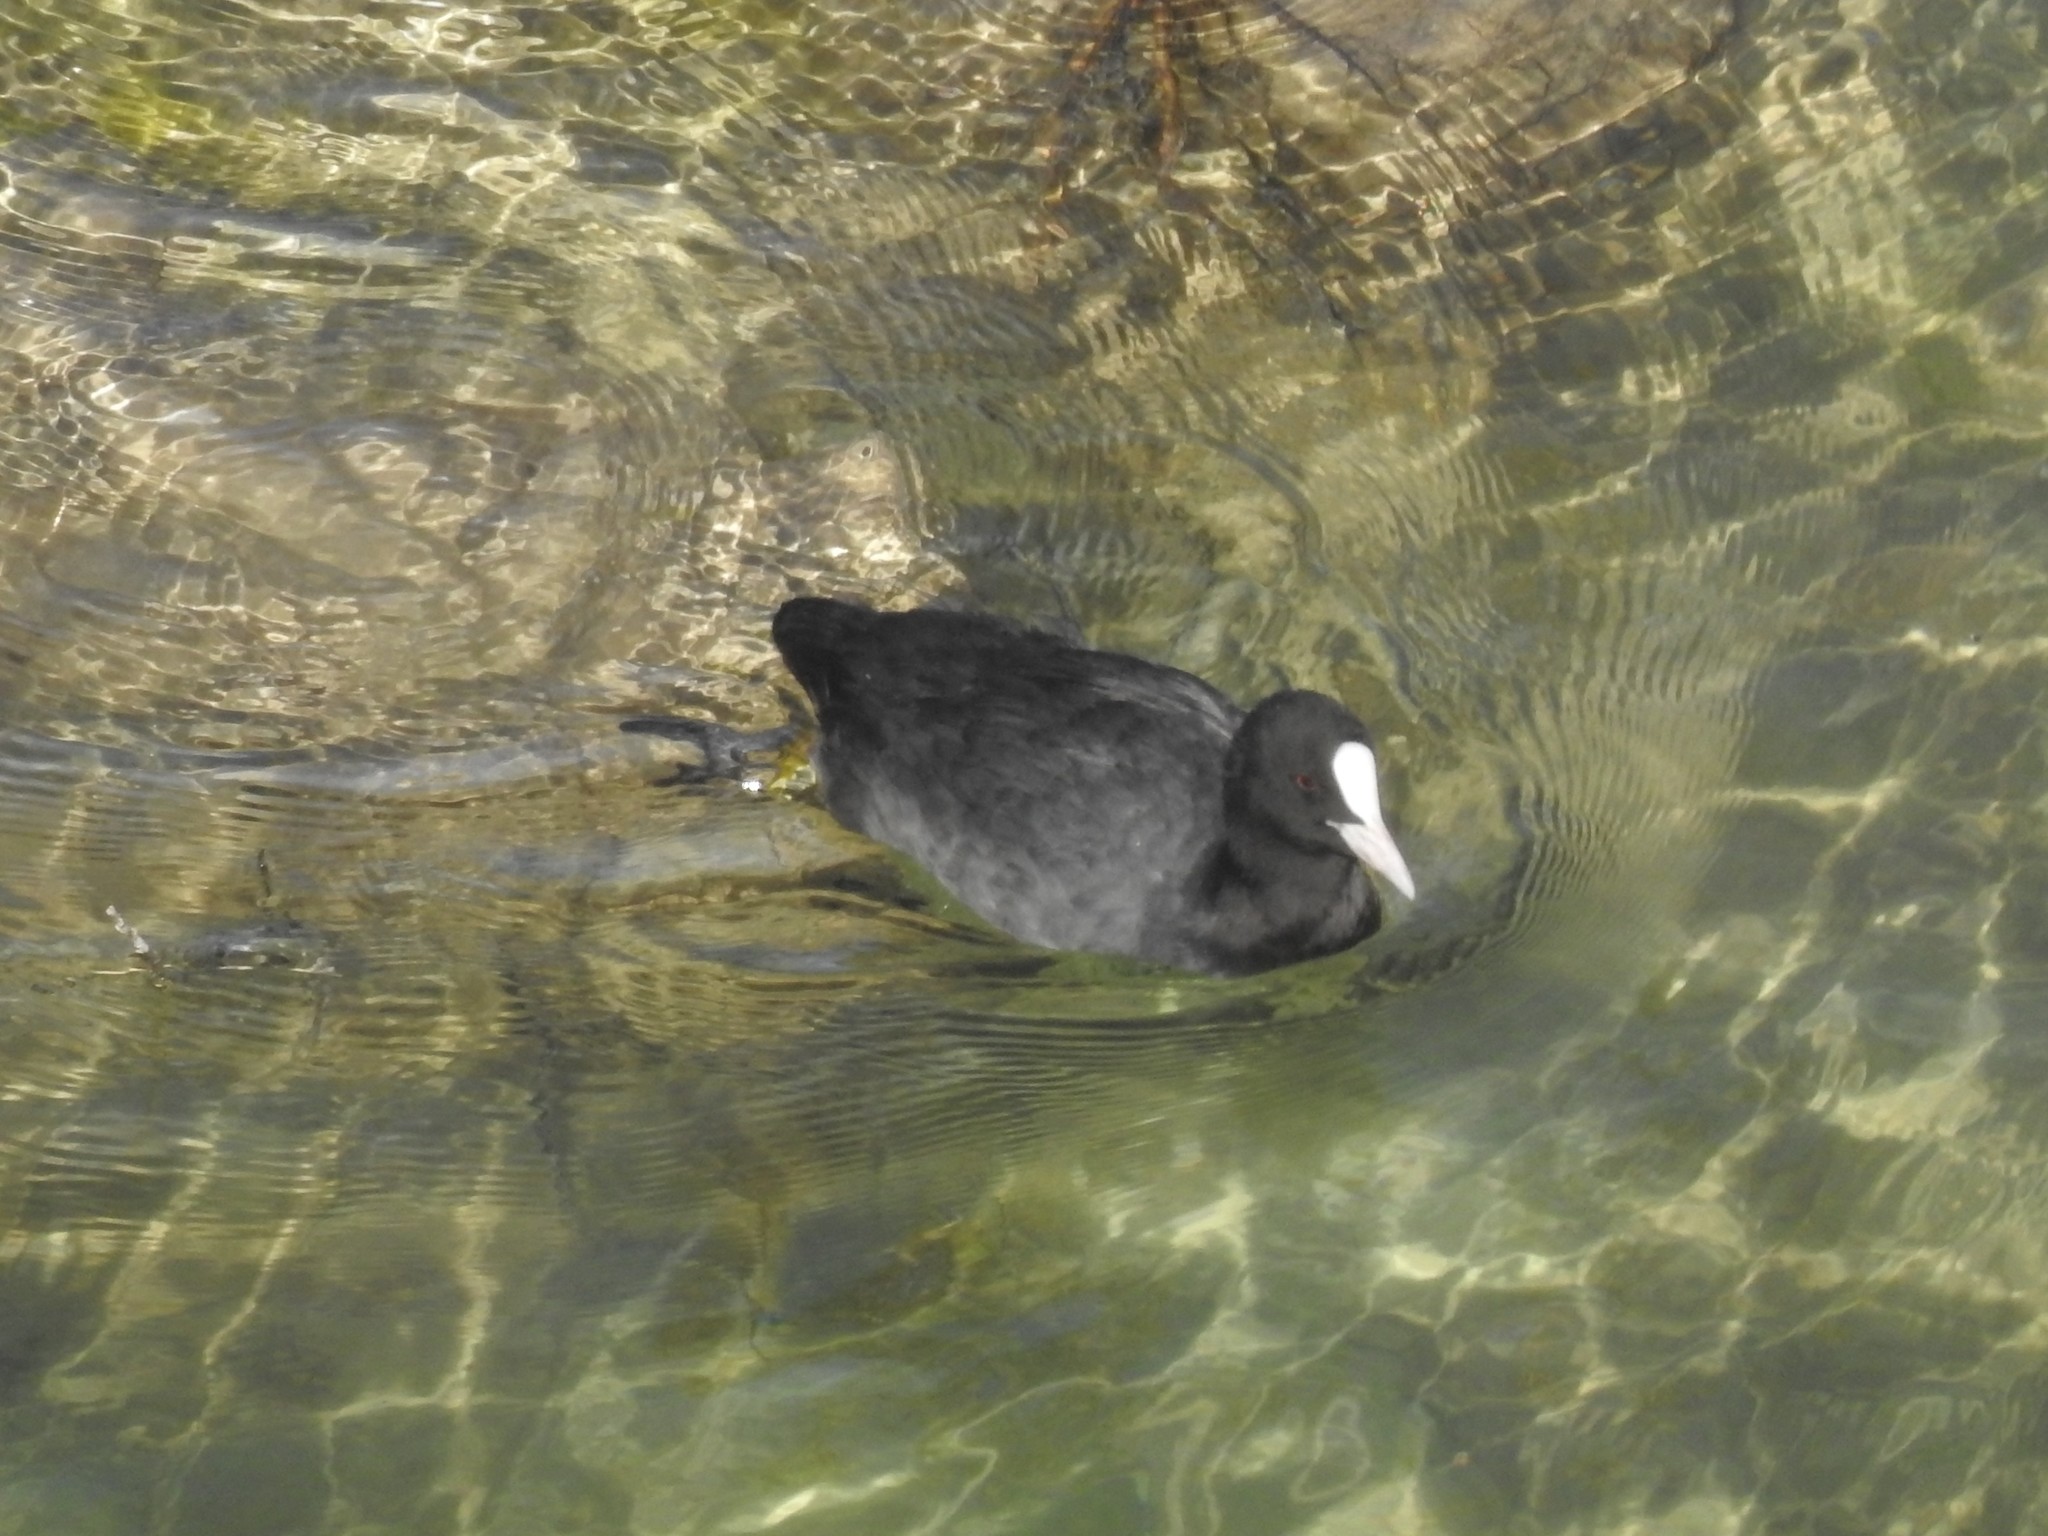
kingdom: Animalia
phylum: Chordata
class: Aves
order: Gruiformes
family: Rallidae
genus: Fulica
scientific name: Fulica atra
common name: Eurasian coot
